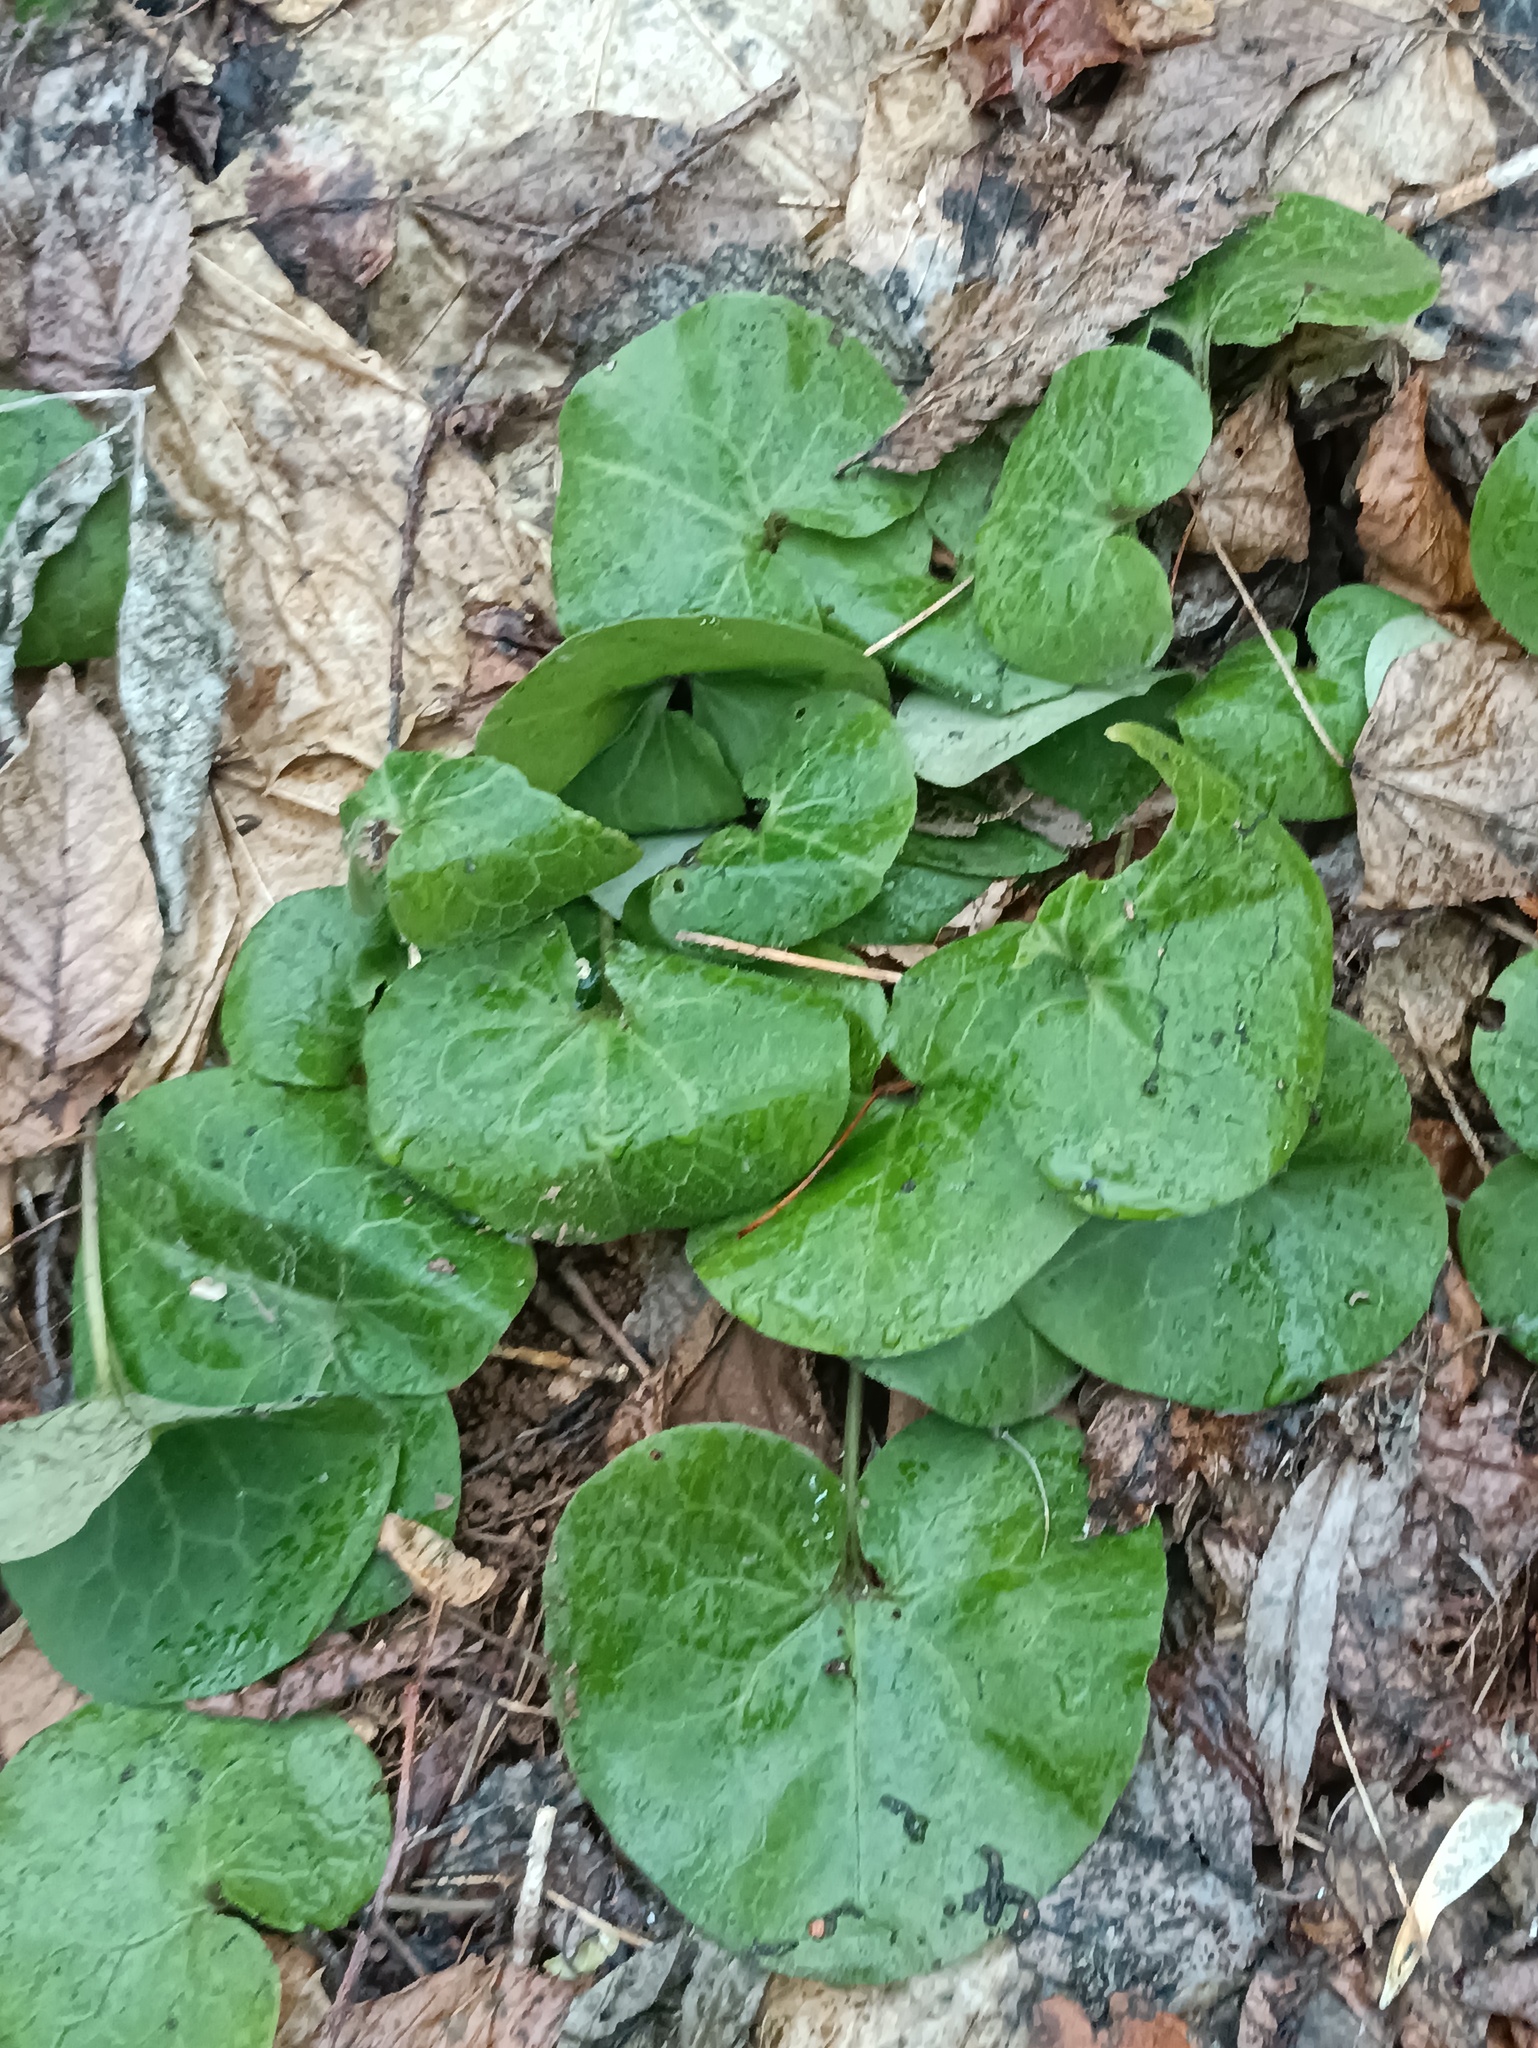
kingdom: Plantae
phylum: Tracheophyta
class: Magnoliopsida
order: Piperales
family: Aristolochiaceae
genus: Asarum
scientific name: Asarum europaeum
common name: Asarabacca
